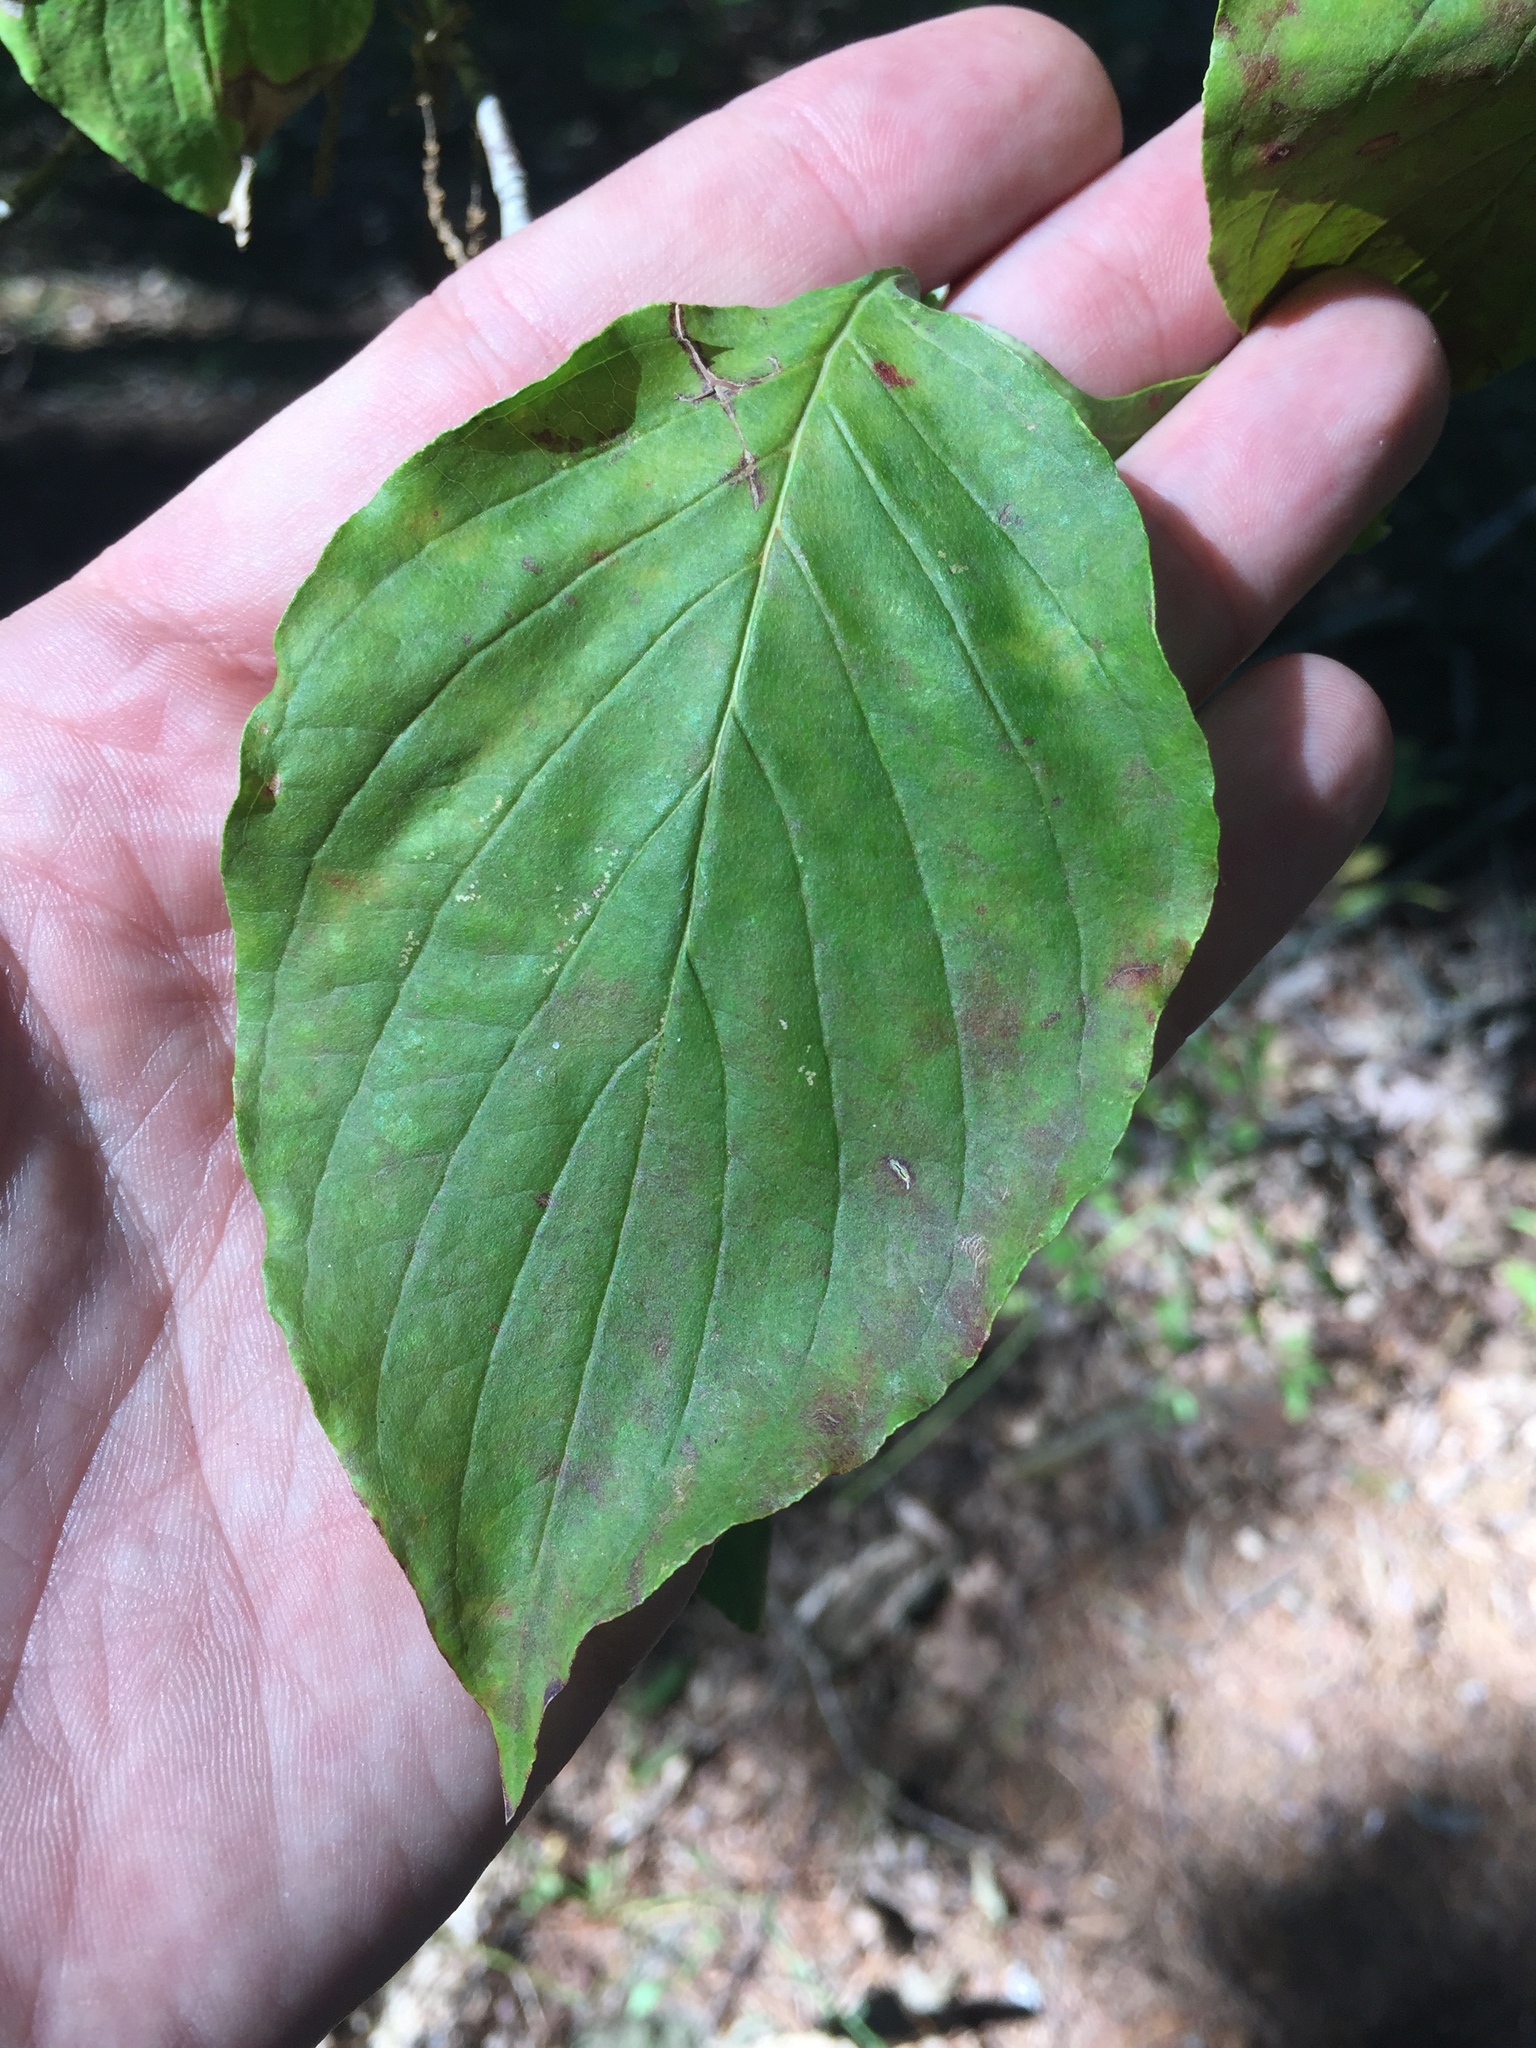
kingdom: Plantae
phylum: Tracheophyta
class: Magnoliopsida
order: Cornales
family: Cornaceae
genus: Cornus
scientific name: Cornus florida
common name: Flowering dogwood
